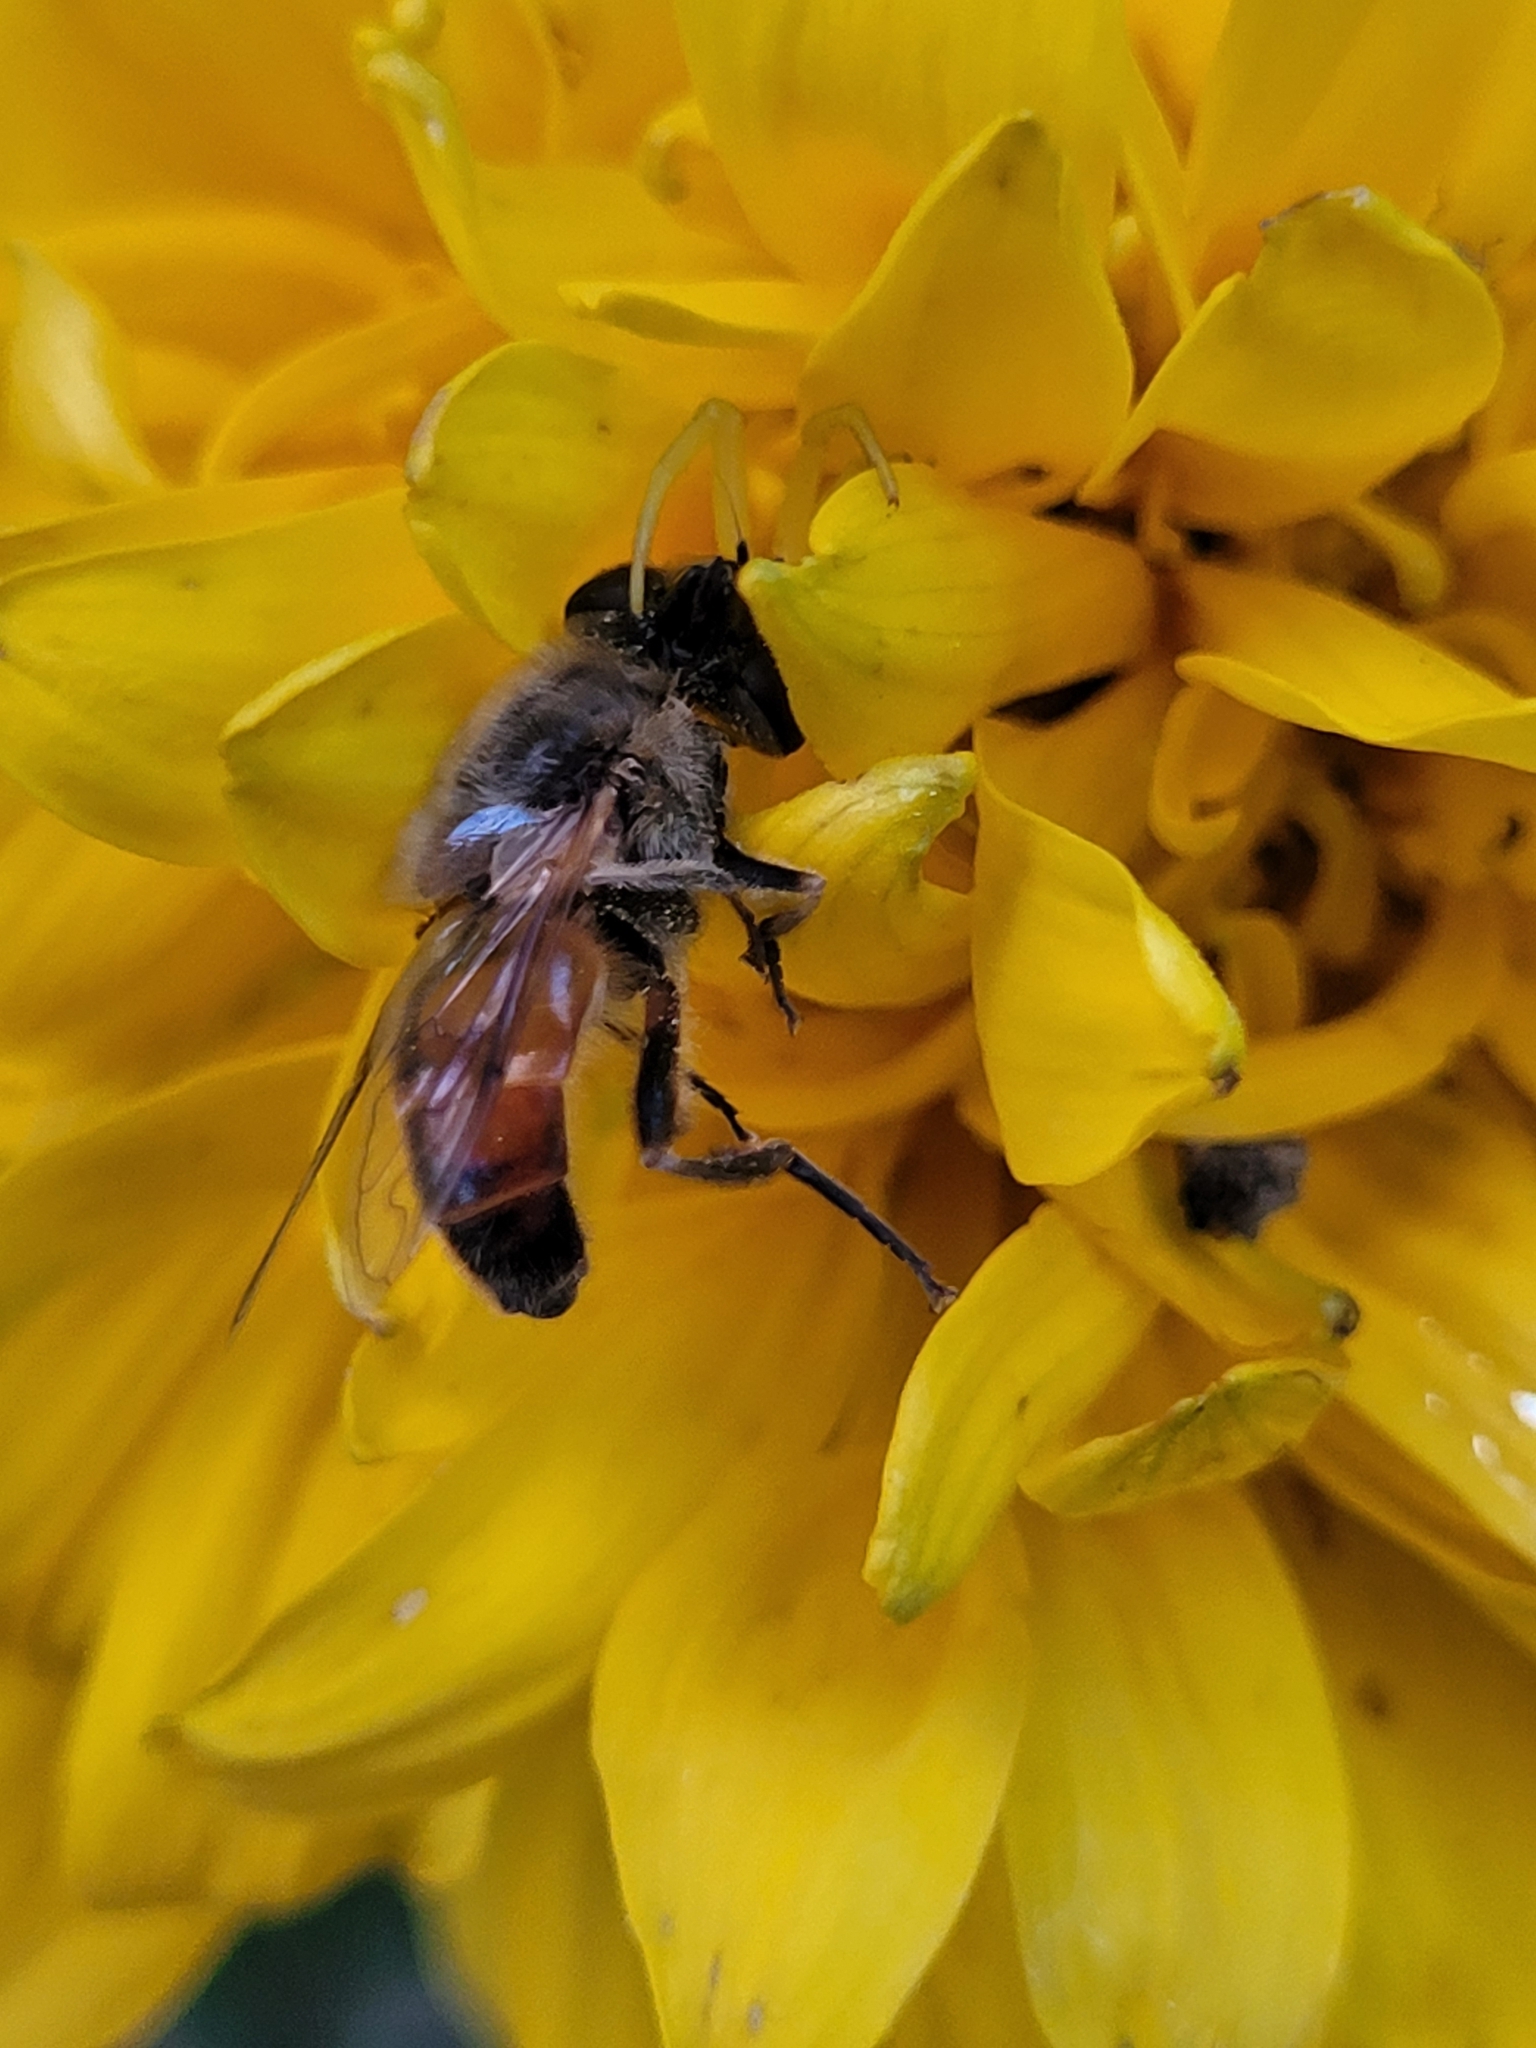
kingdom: Animalia
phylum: Arthropoda
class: Insecta
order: Diptera
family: Syrphidae
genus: Eristalis
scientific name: Eristalis tenax
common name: Drone fly
